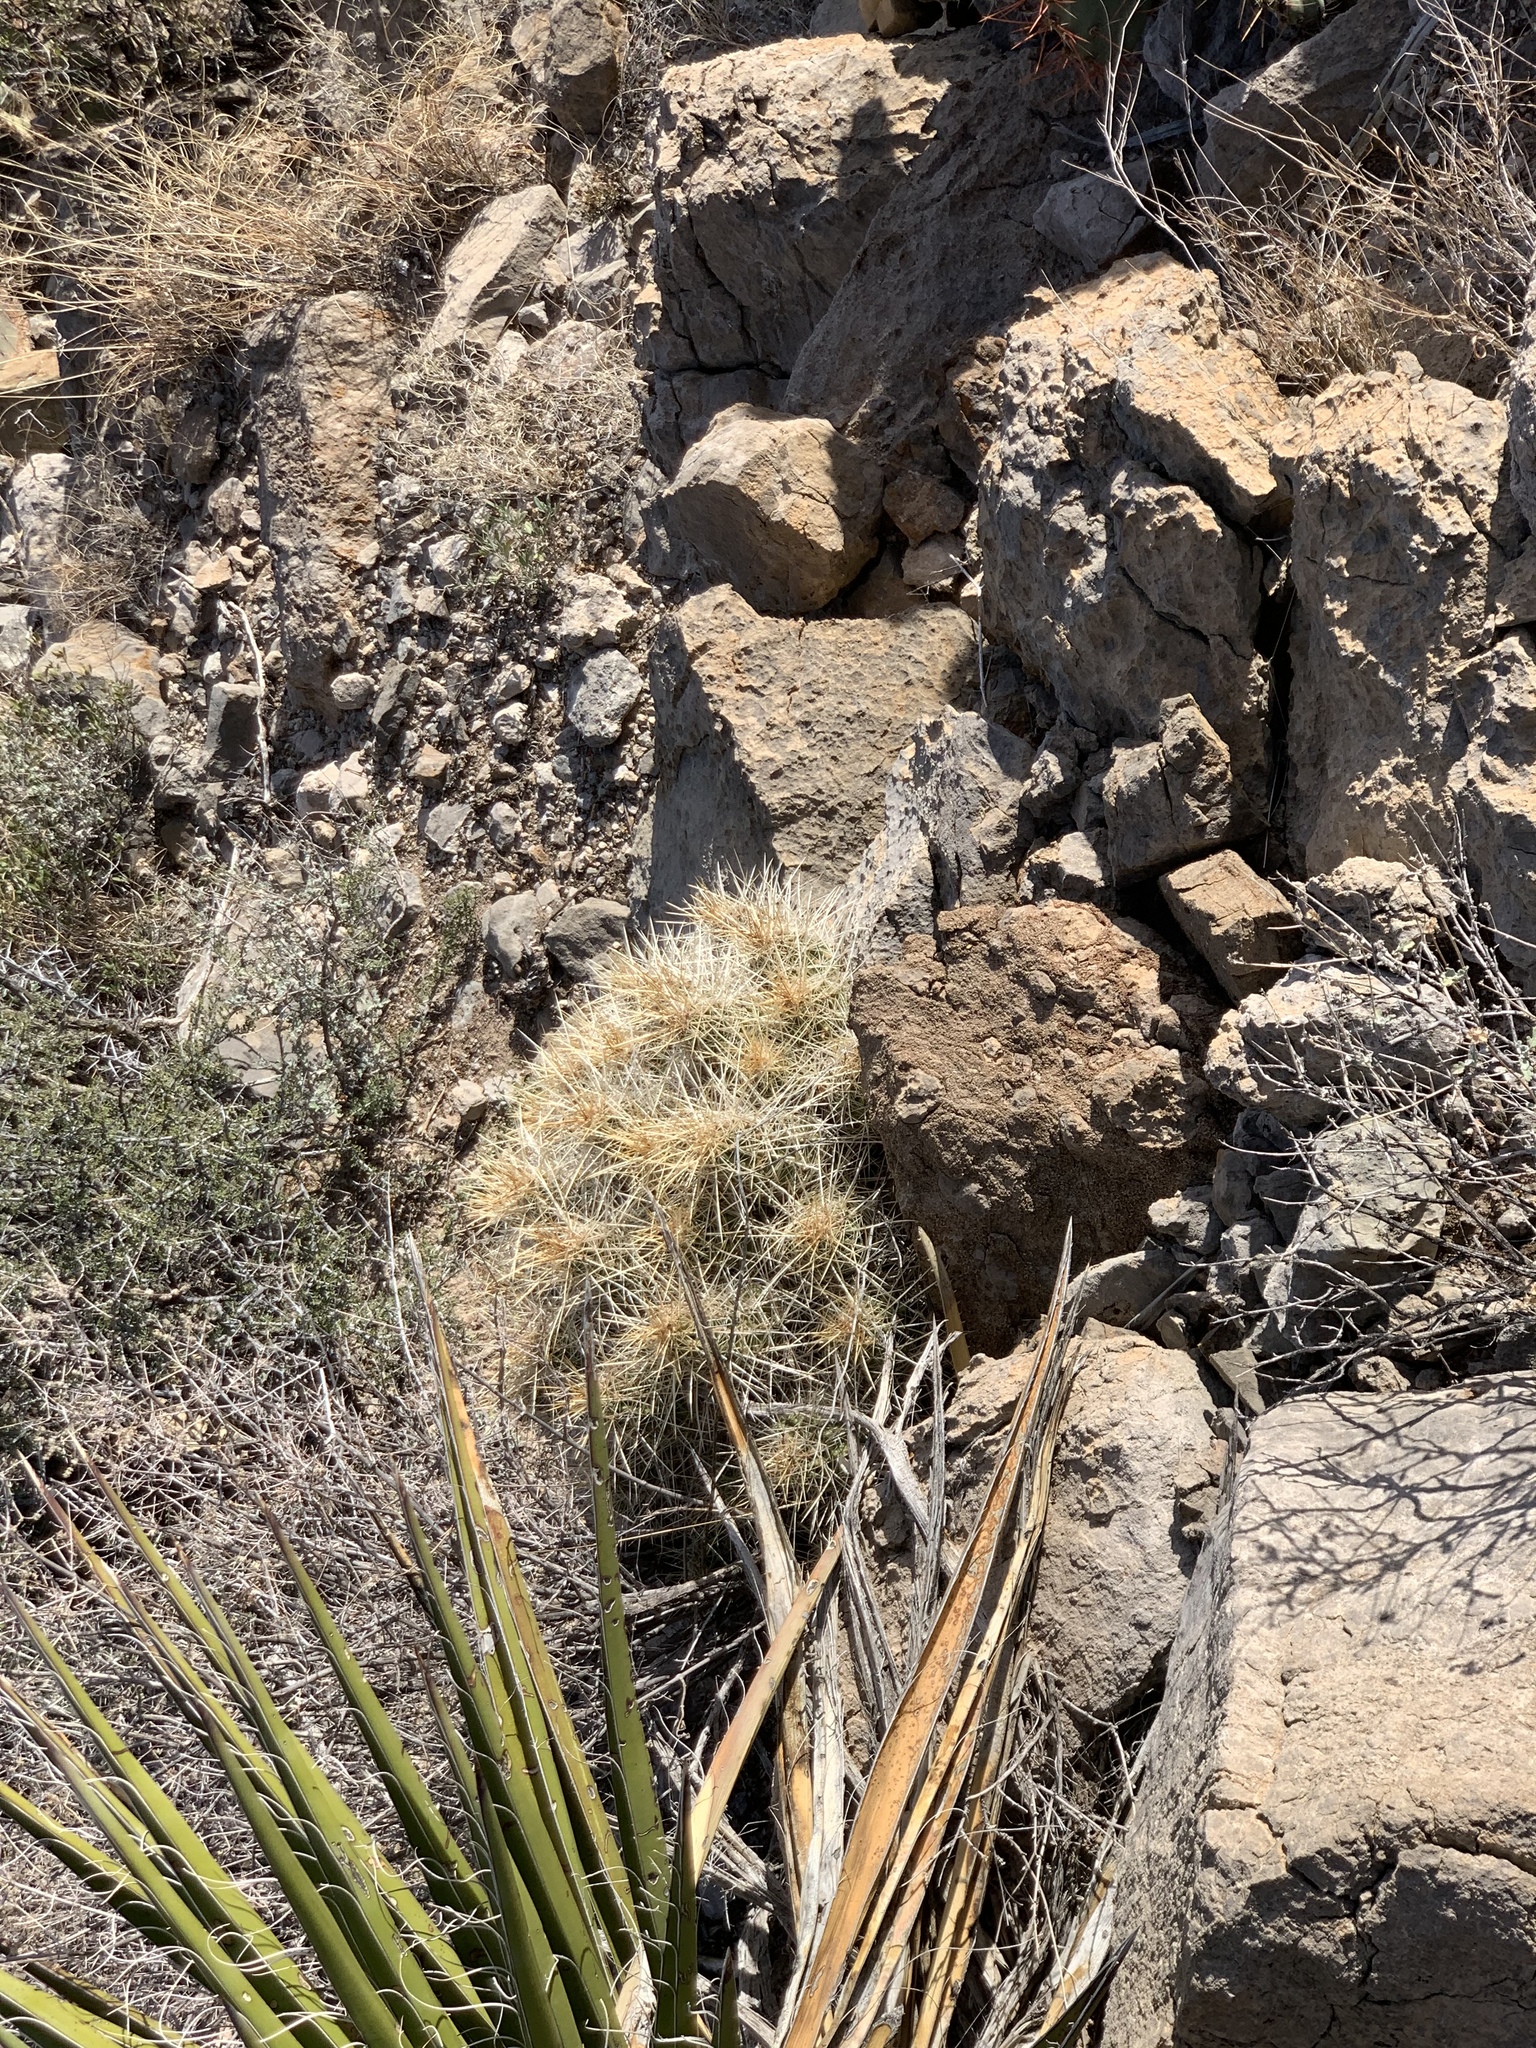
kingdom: Plantae
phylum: Tracheophyta
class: Magnoliopsida
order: Caryophyllales
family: Cactaceae
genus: Echinocereus
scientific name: Echinocereus stramineus
